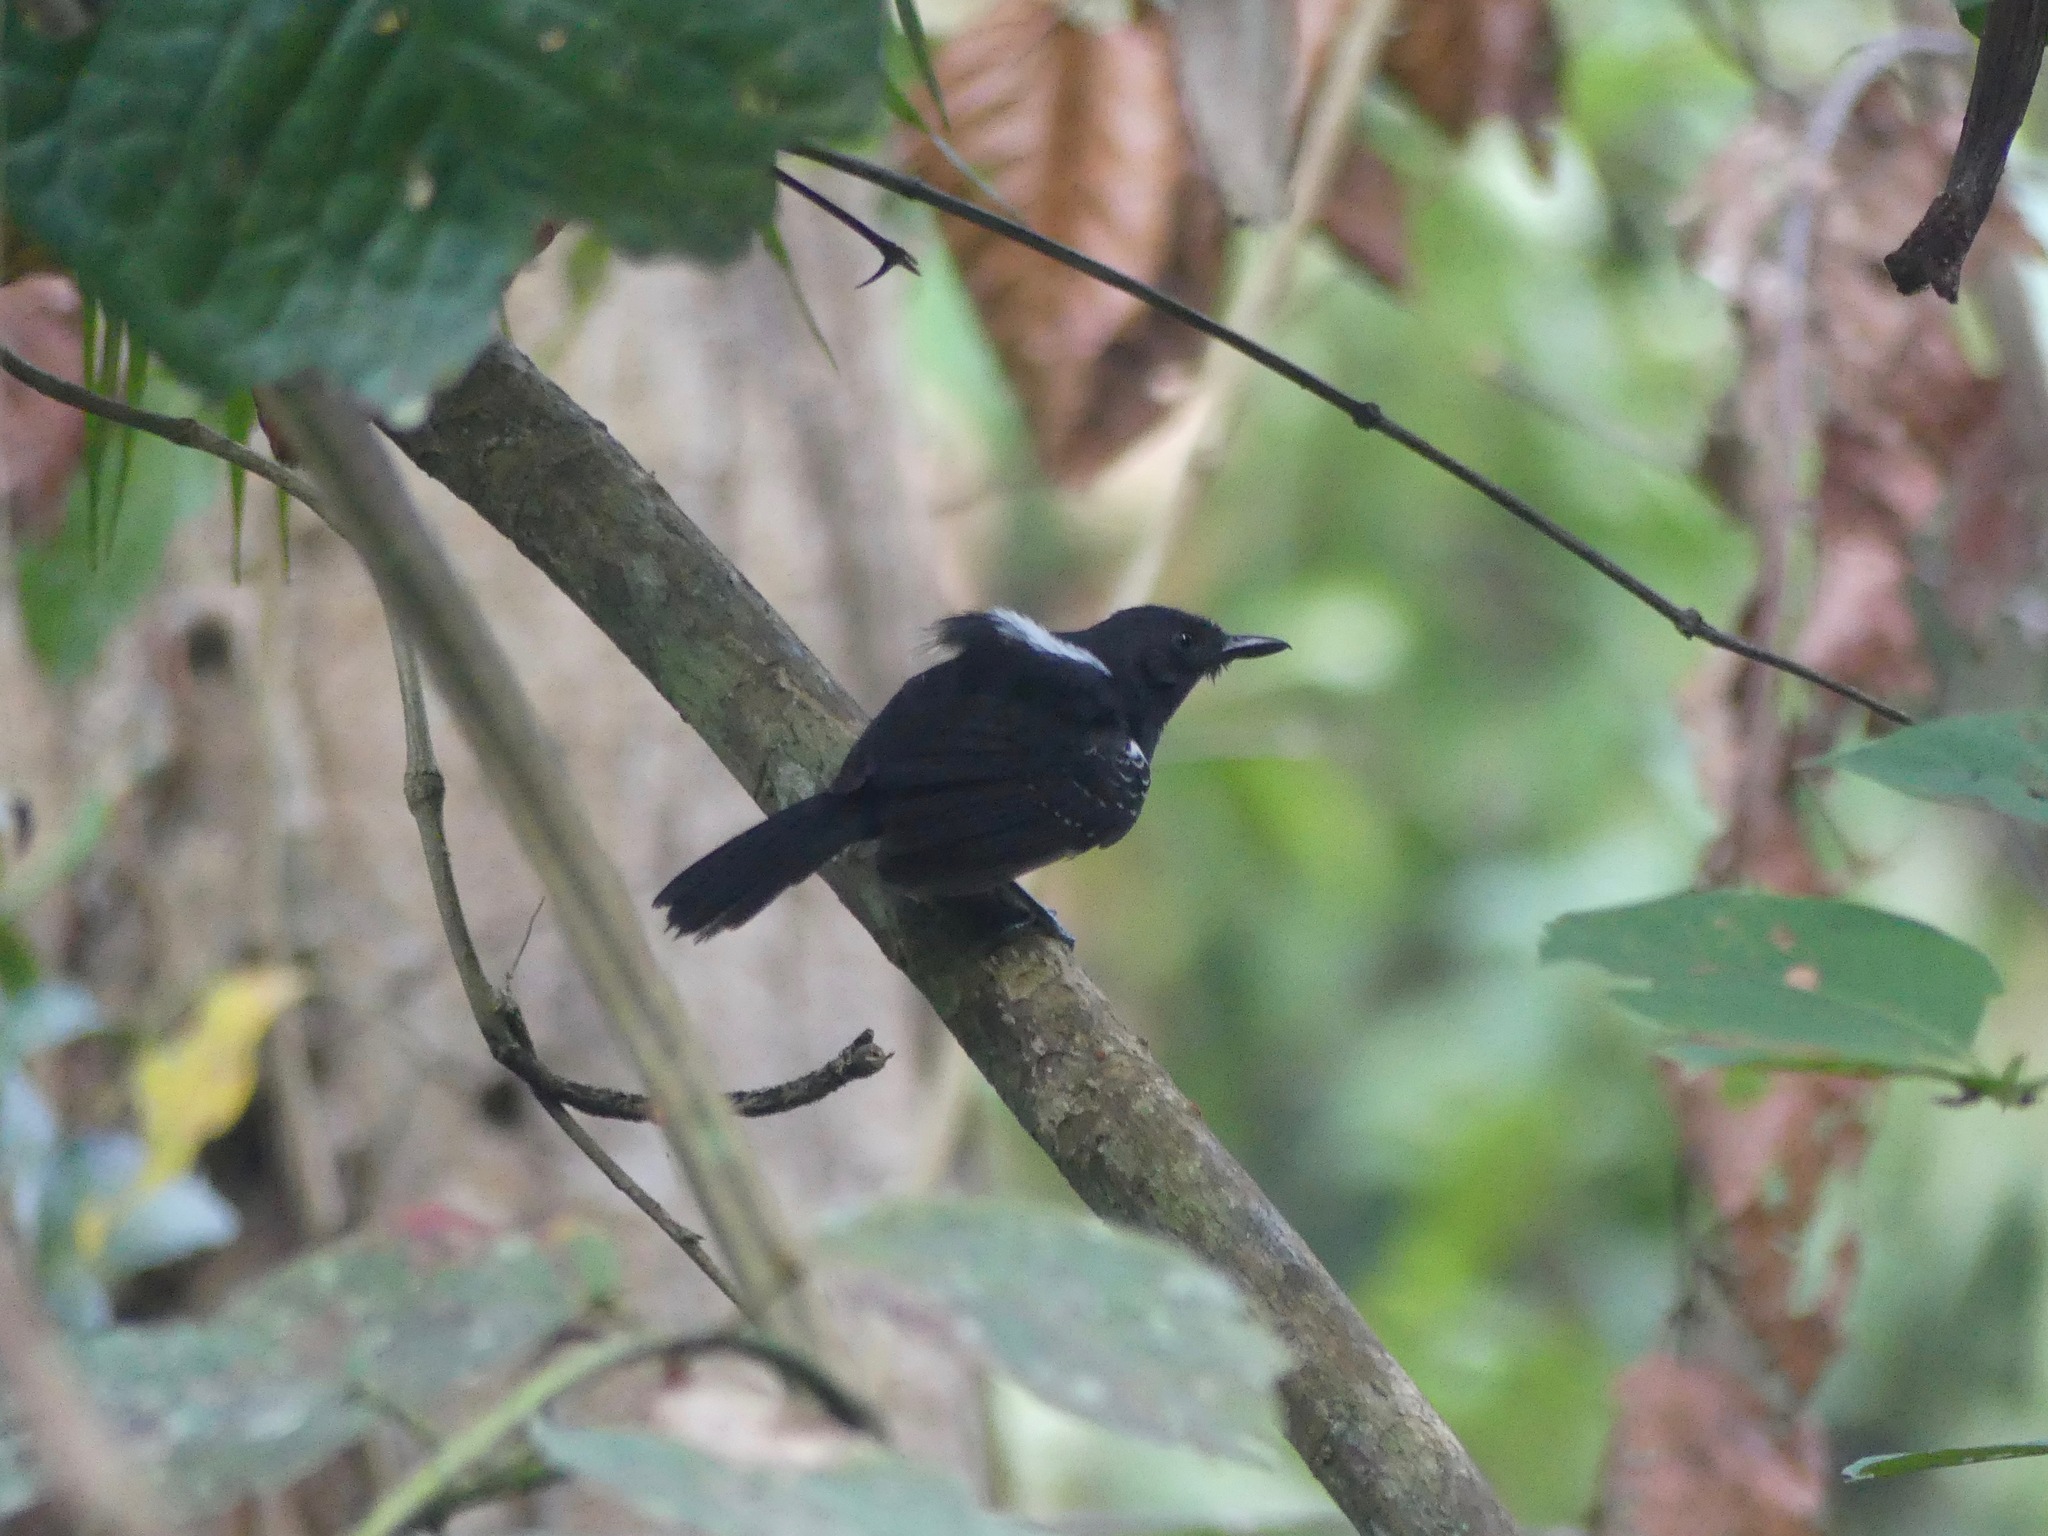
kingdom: Animalia
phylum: Chordata
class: Aves
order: Passeriformes
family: Thamnophilidae
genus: Cercomacra
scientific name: Cercomacra serva
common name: Black antbird
